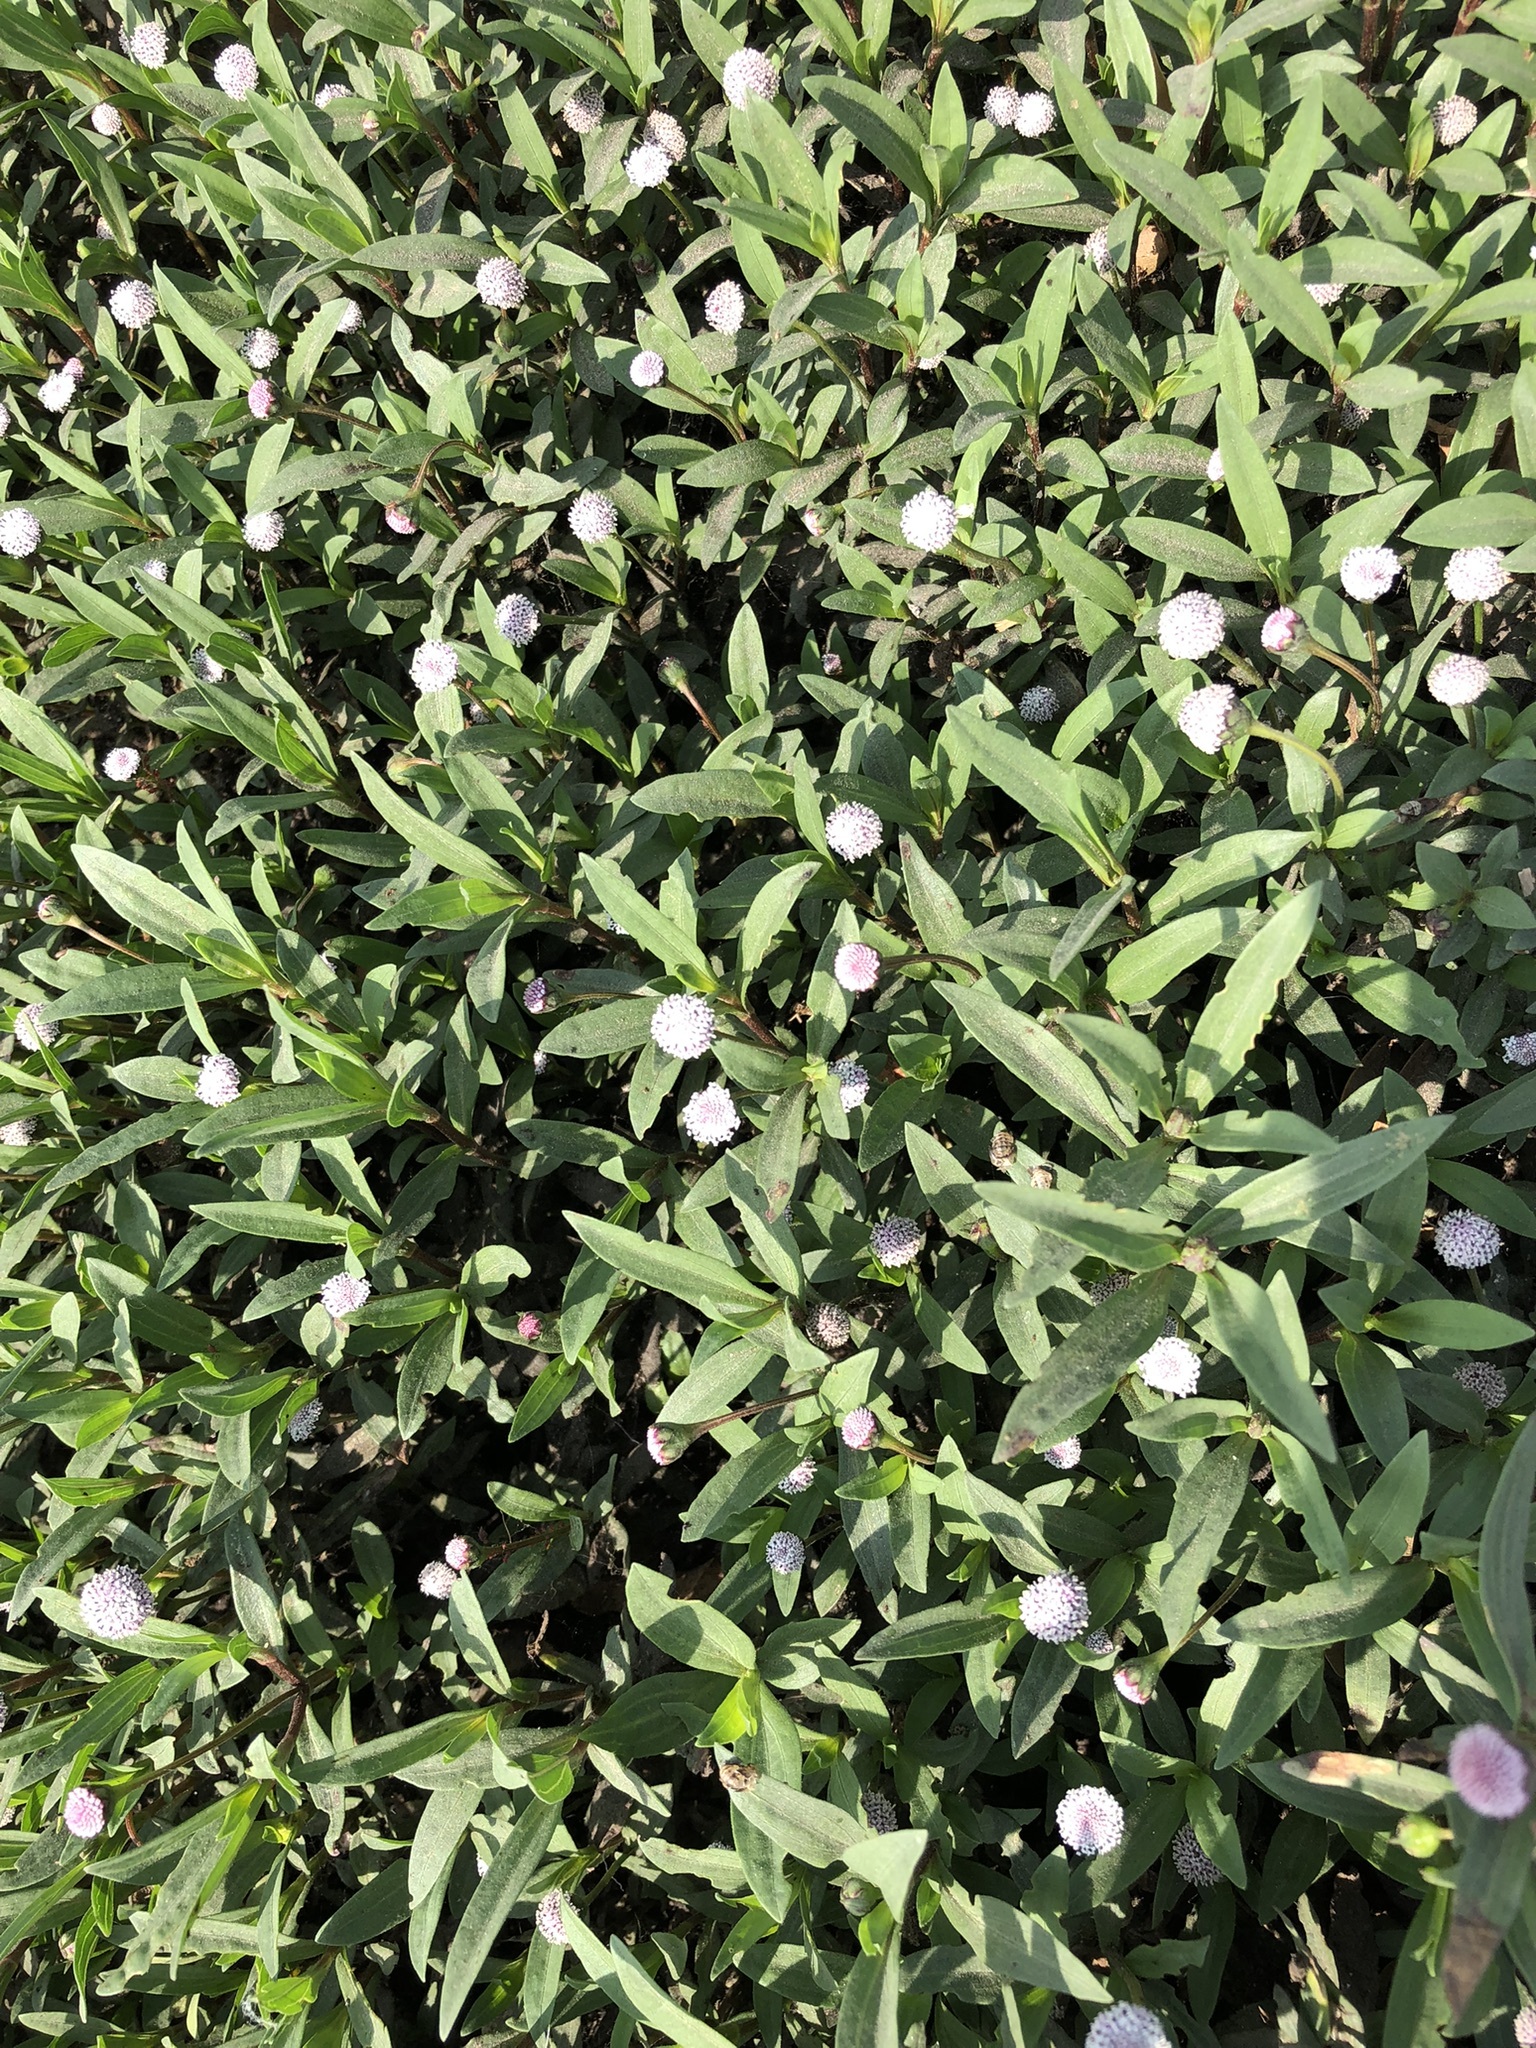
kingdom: Plantae
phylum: Tracheophyta
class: Magnoliopsida
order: Asterales
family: Asteraceae
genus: Spilanthes
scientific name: Spilanthes leiocarpa
